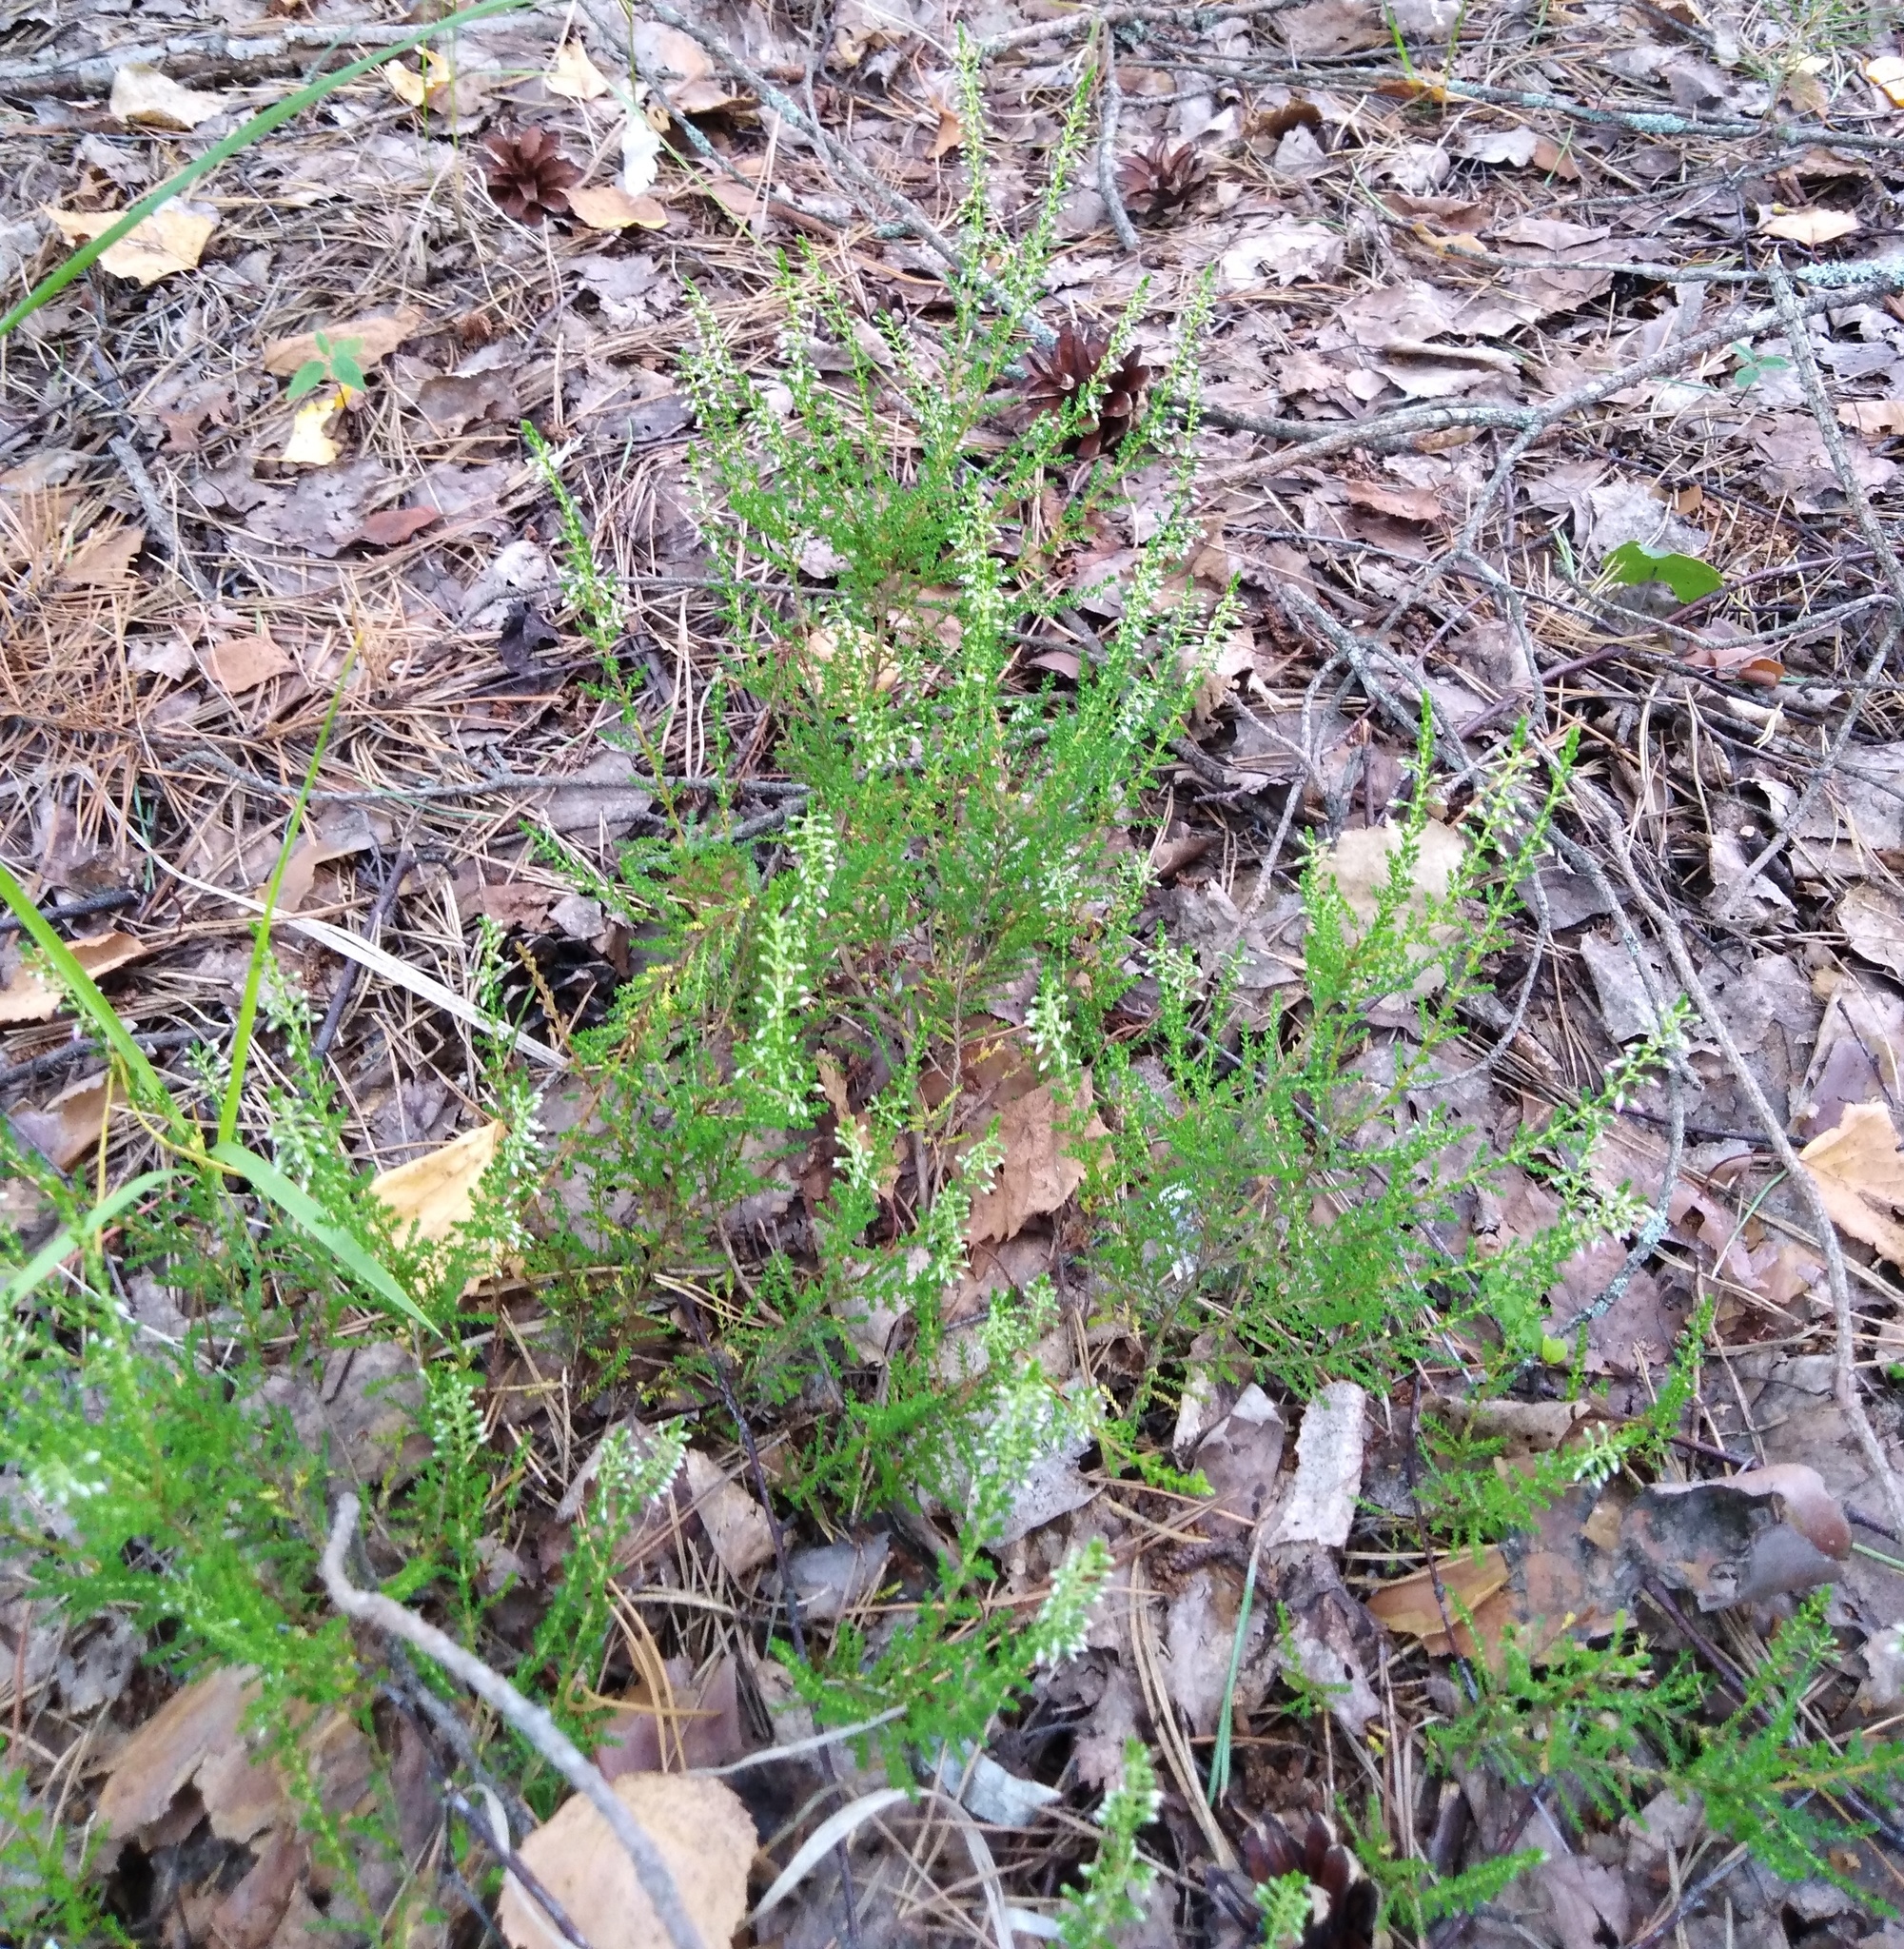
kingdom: Plantae
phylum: Tracheophyta
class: Magnoliopsida
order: Ericales
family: Ericaceae
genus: Calluna
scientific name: Calluna vulgaris
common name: Heather
